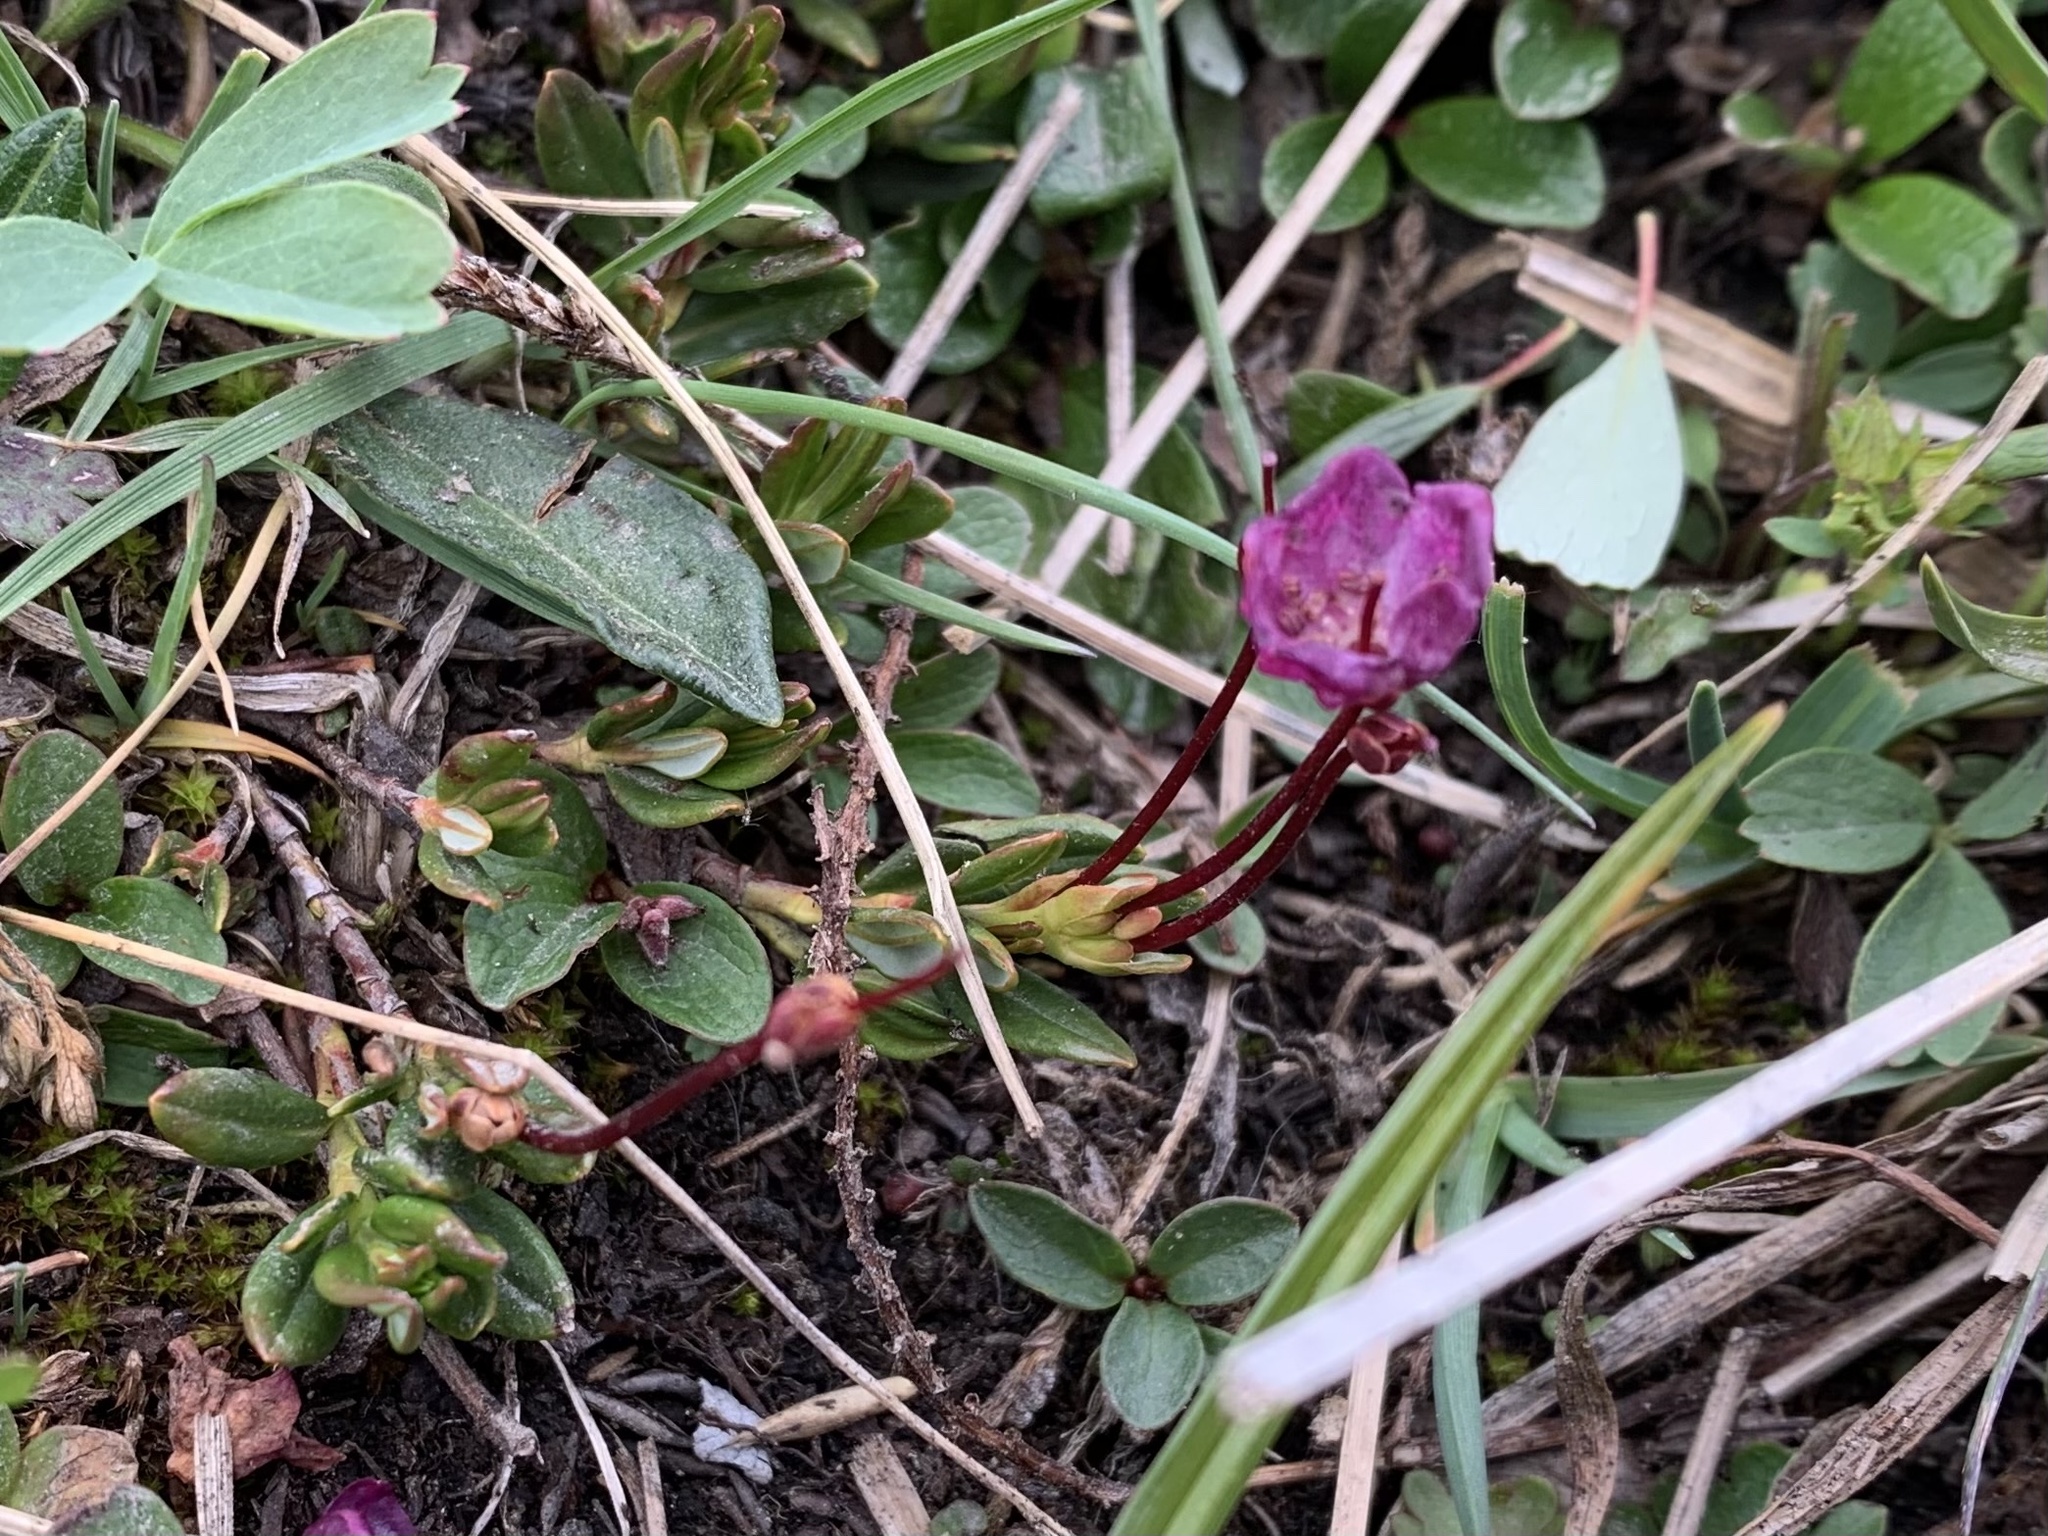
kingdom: Plantae
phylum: Tracheophyta
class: Magnoliopsida
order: Ericales
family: Ericaceae
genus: Kalmia
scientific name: Kalmia microphylla
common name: Alpine bog laurel
